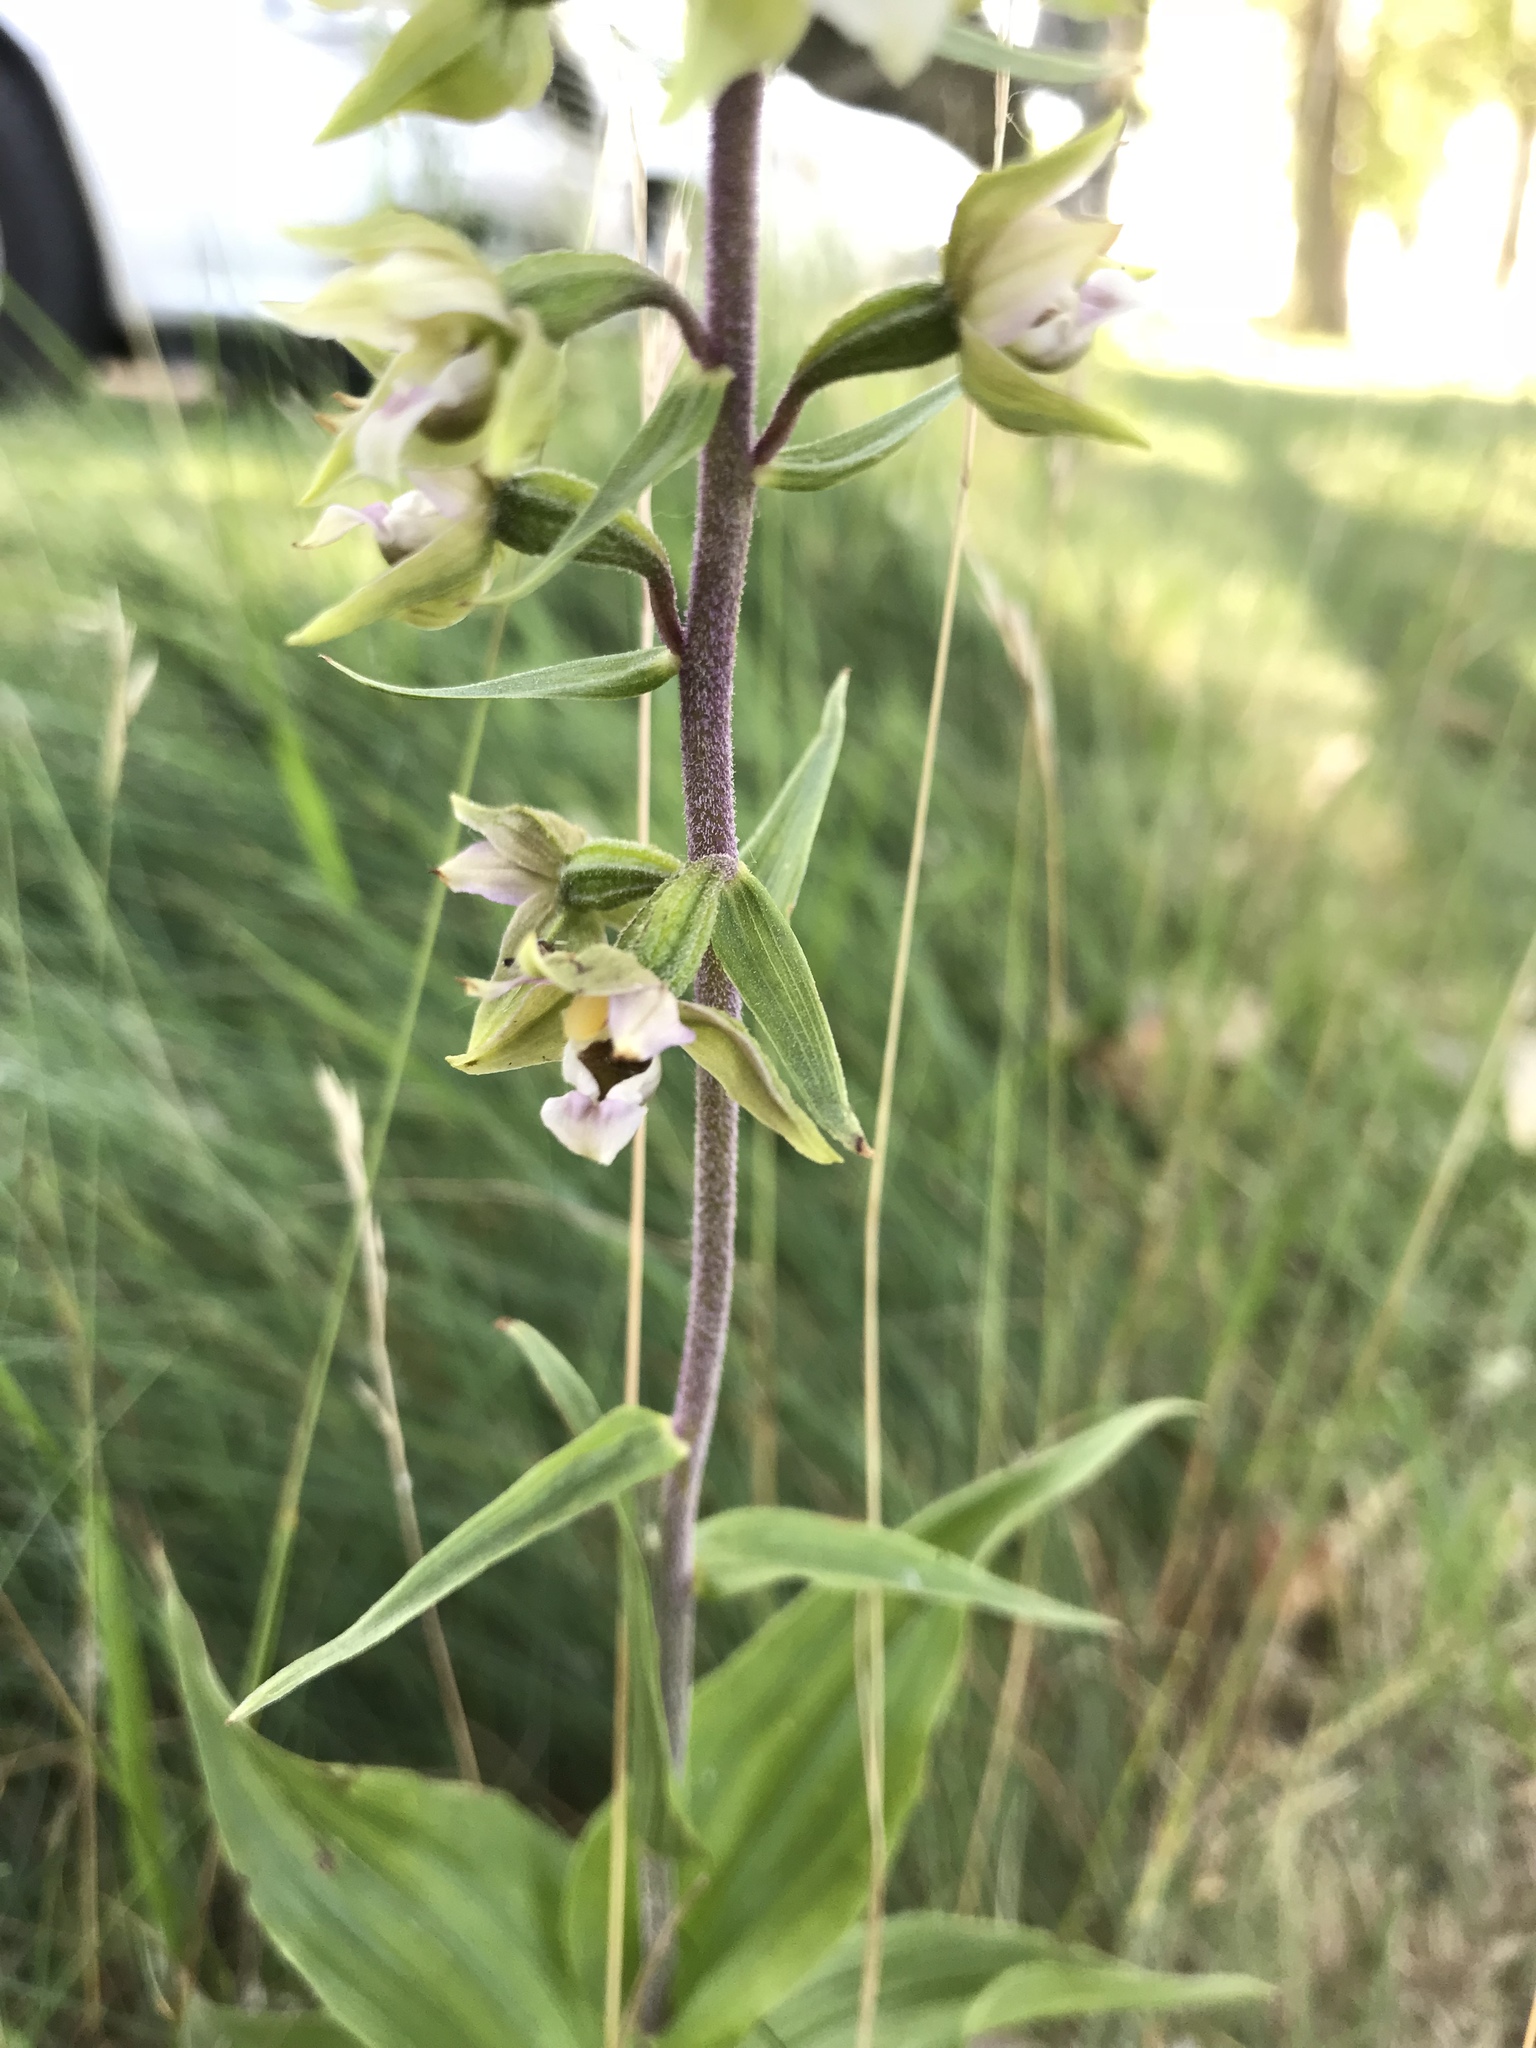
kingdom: Plantae
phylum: Tracheophyta
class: Liliopsida
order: Asparagales
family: Orchidaceae
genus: Epipactis
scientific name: Epipactis helleborine
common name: Broad-leaved helleborine
